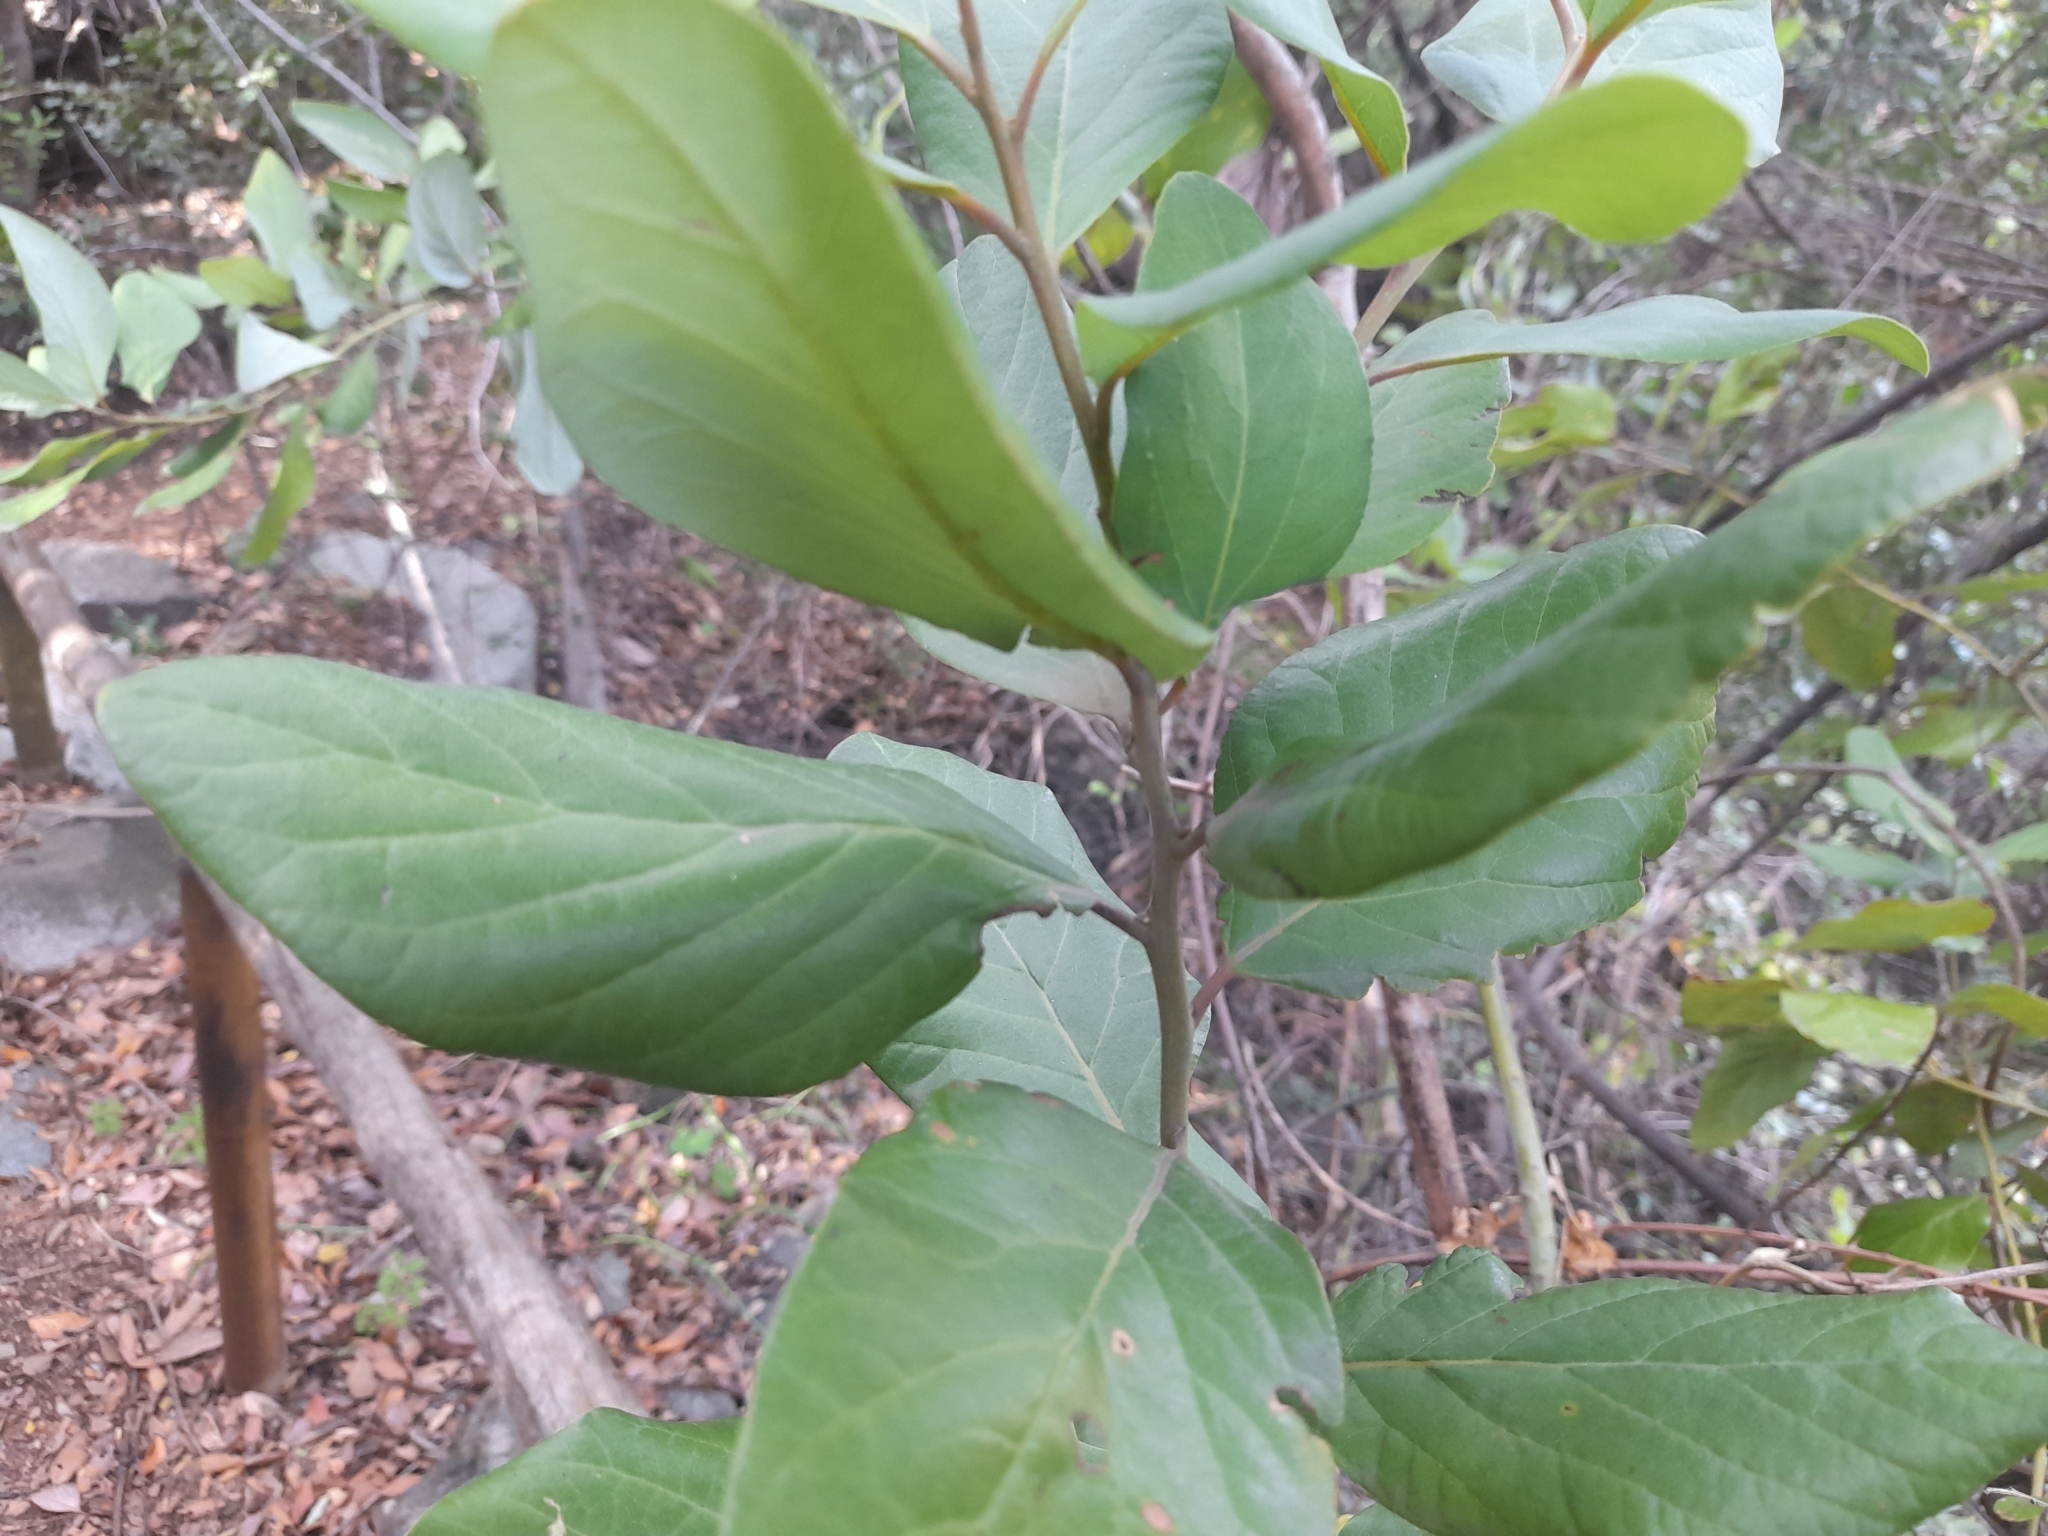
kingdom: Plantae
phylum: Tracheophyta
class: Magnoliopsida
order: Laurales
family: Lauraceae
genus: Persea
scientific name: Persea lingue
